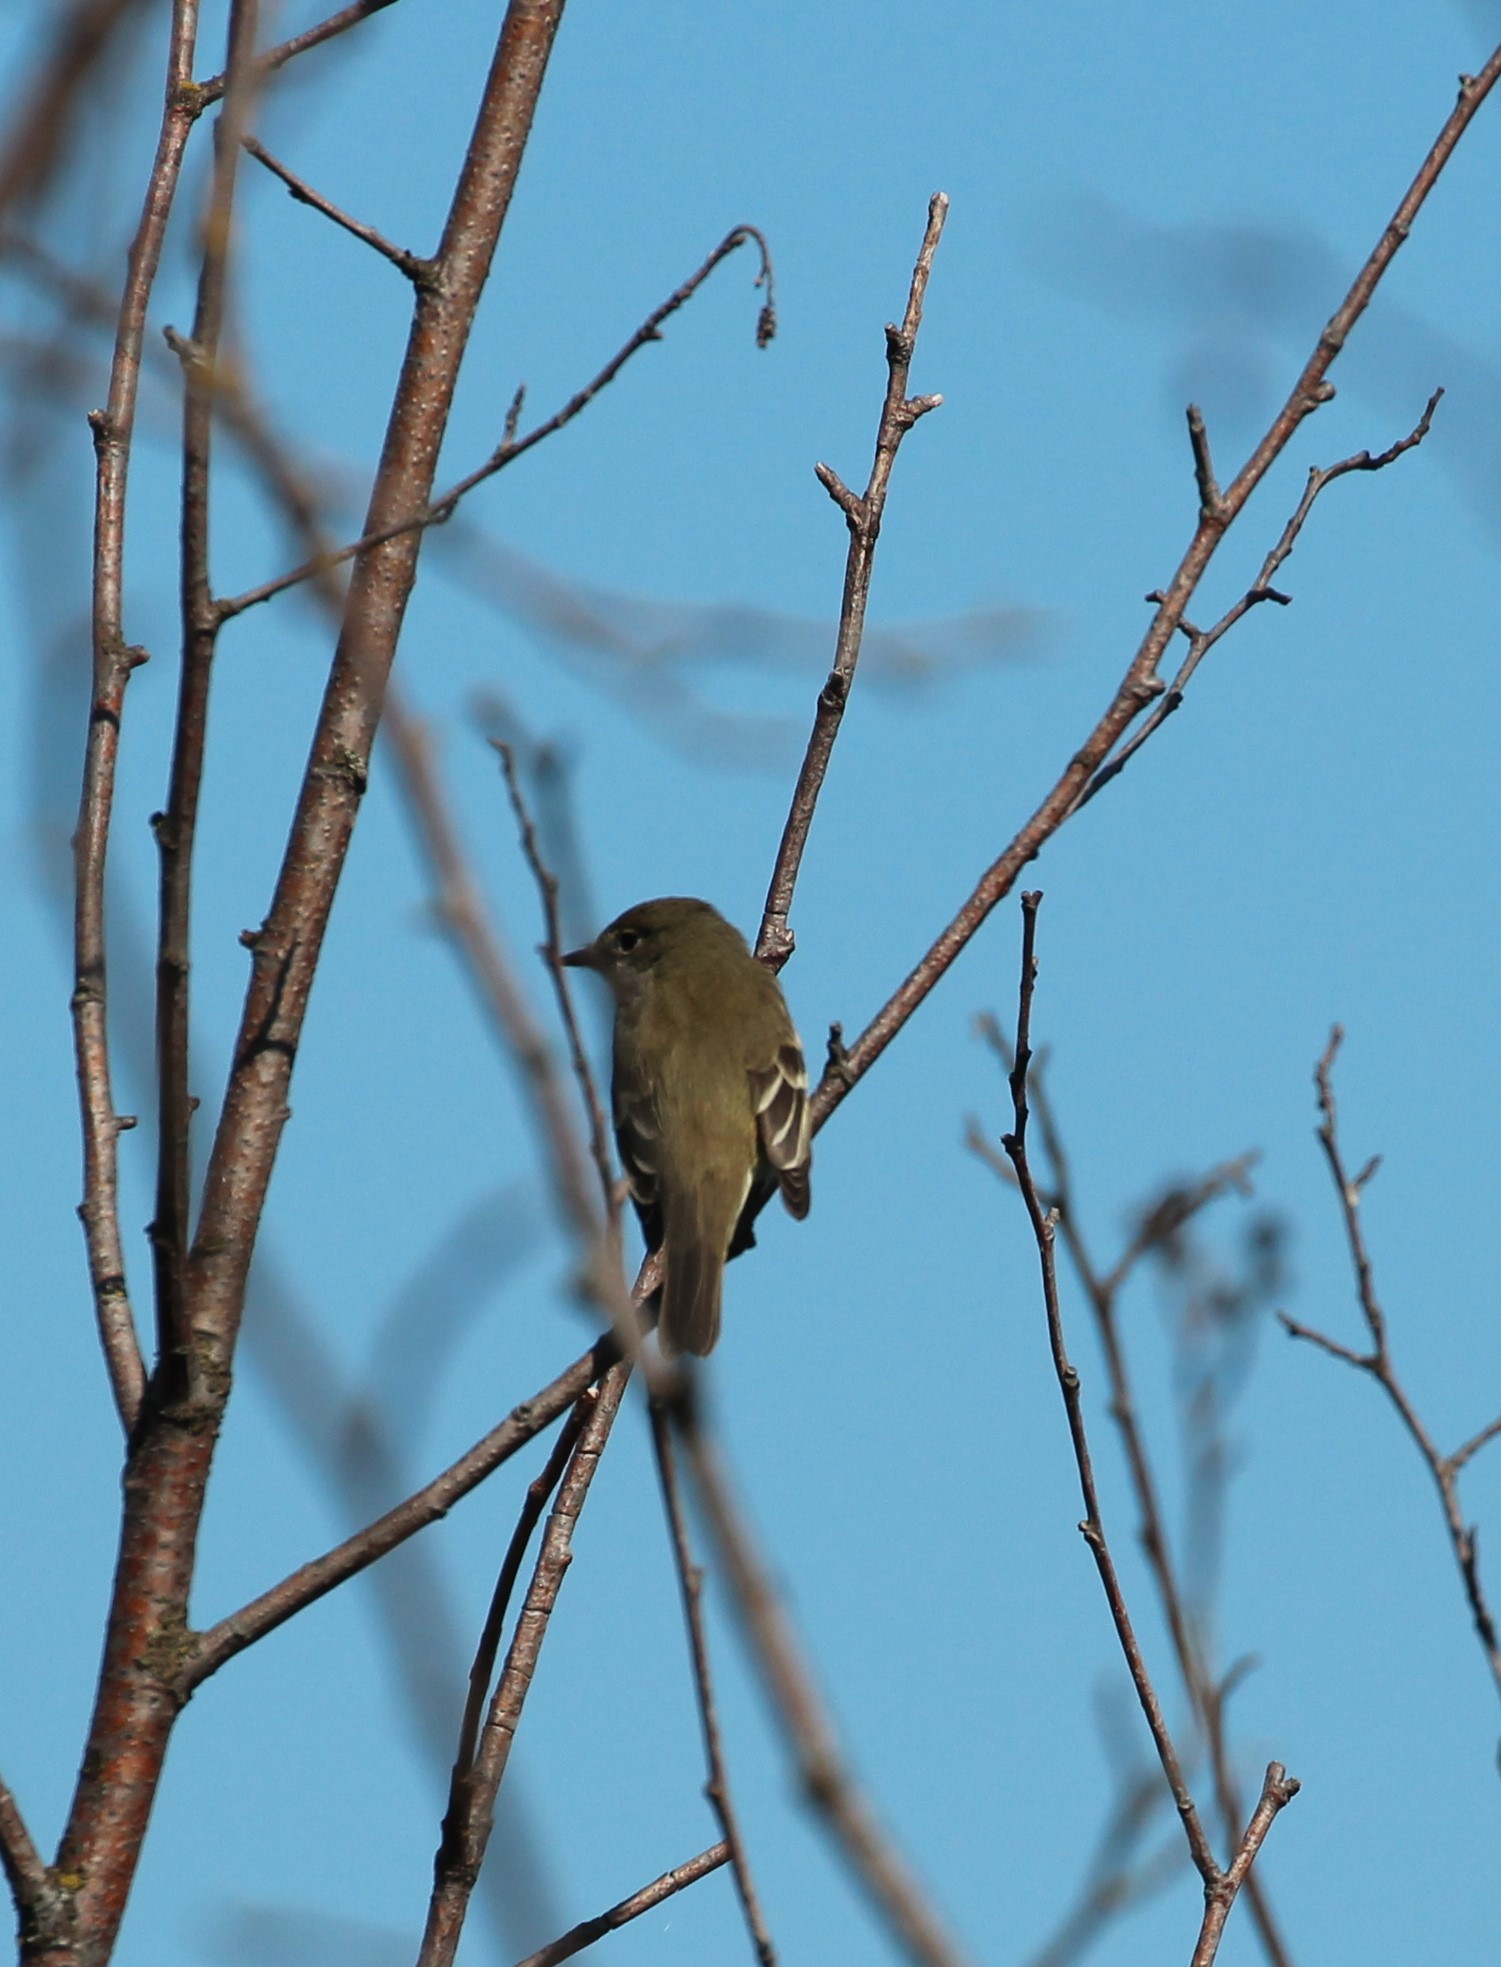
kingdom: Animalia
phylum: Chordata
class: Aves
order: Passeriformes
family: Tyrannidae
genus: Empidonax
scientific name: Empidonax alnorum
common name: Alder flycatcher
